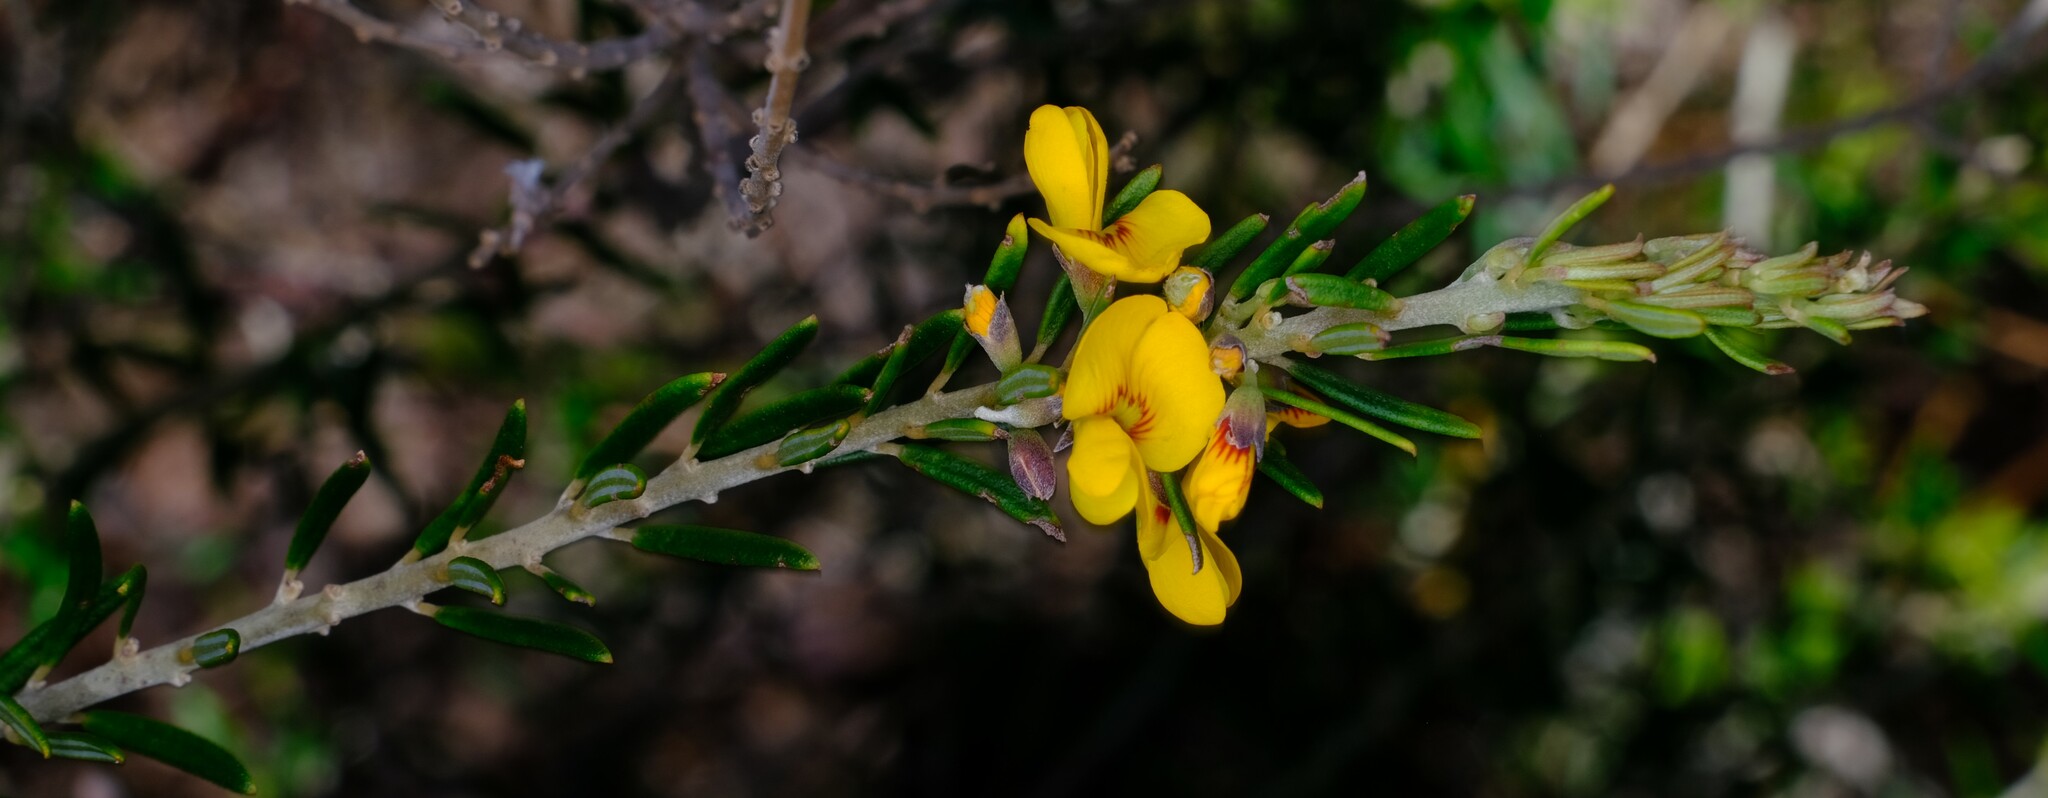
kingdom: Plantae
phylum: Tracheophyta
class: Magnoliopsida
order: Fabales
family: Fabaceae
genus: Aotus
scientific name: Aotus ericoides
